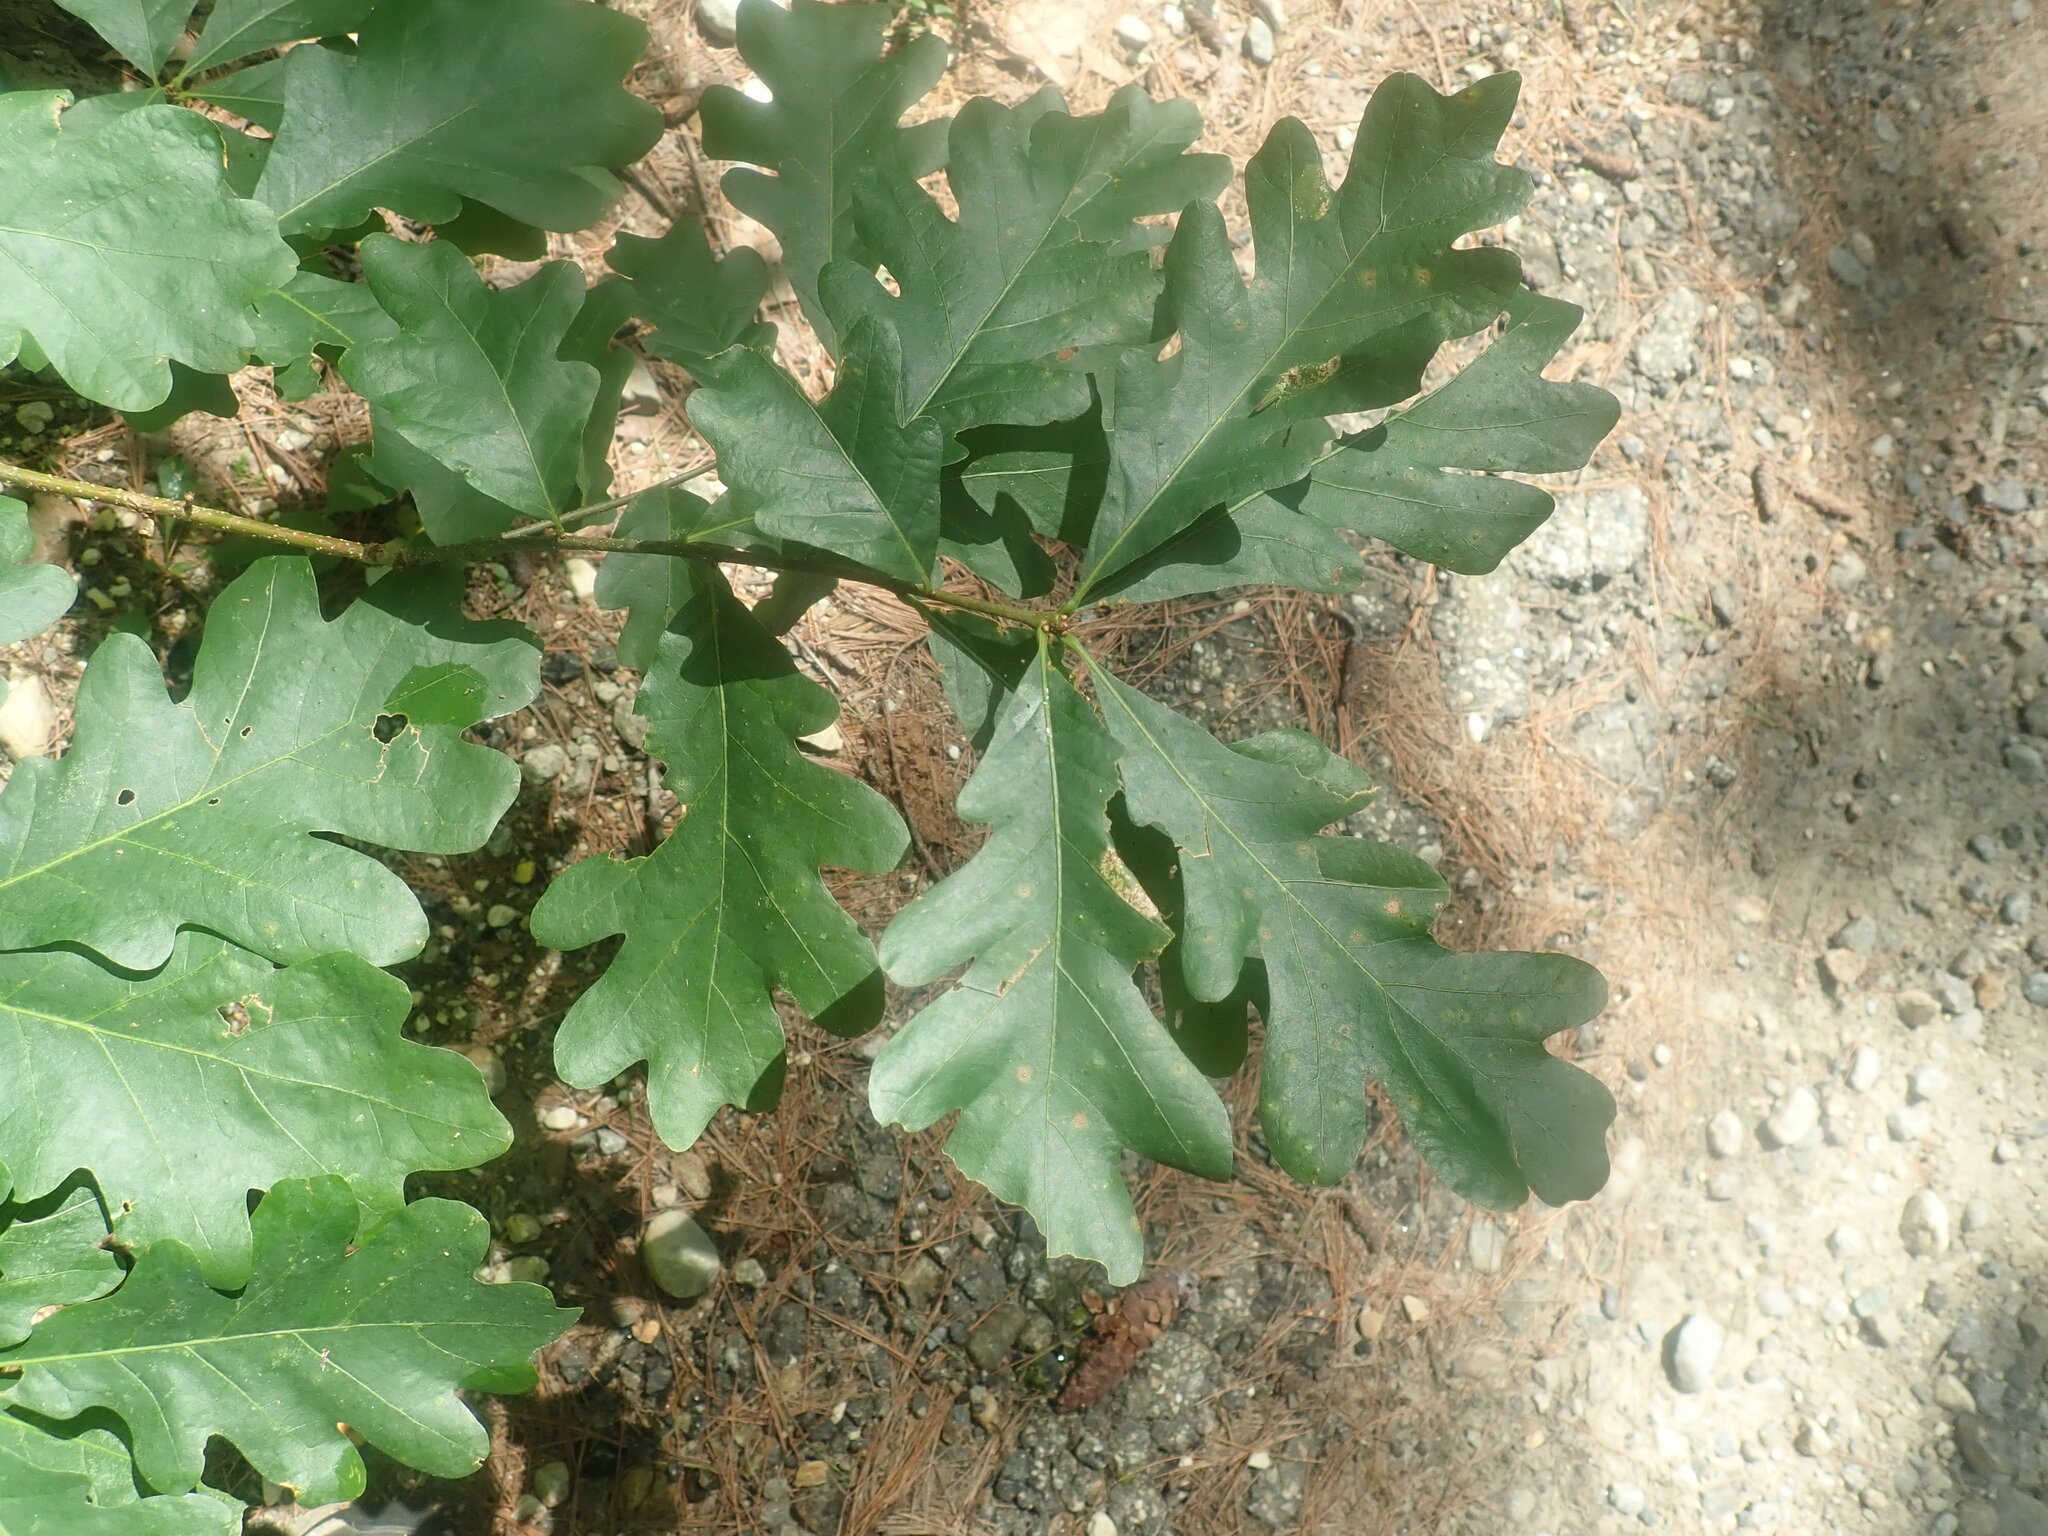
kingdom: Plantae
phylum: Tracheophyta
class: Magnoliopsida
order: Fagales
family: Fagaceae
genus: Quercus
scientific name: Quercus alba
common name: White oak
